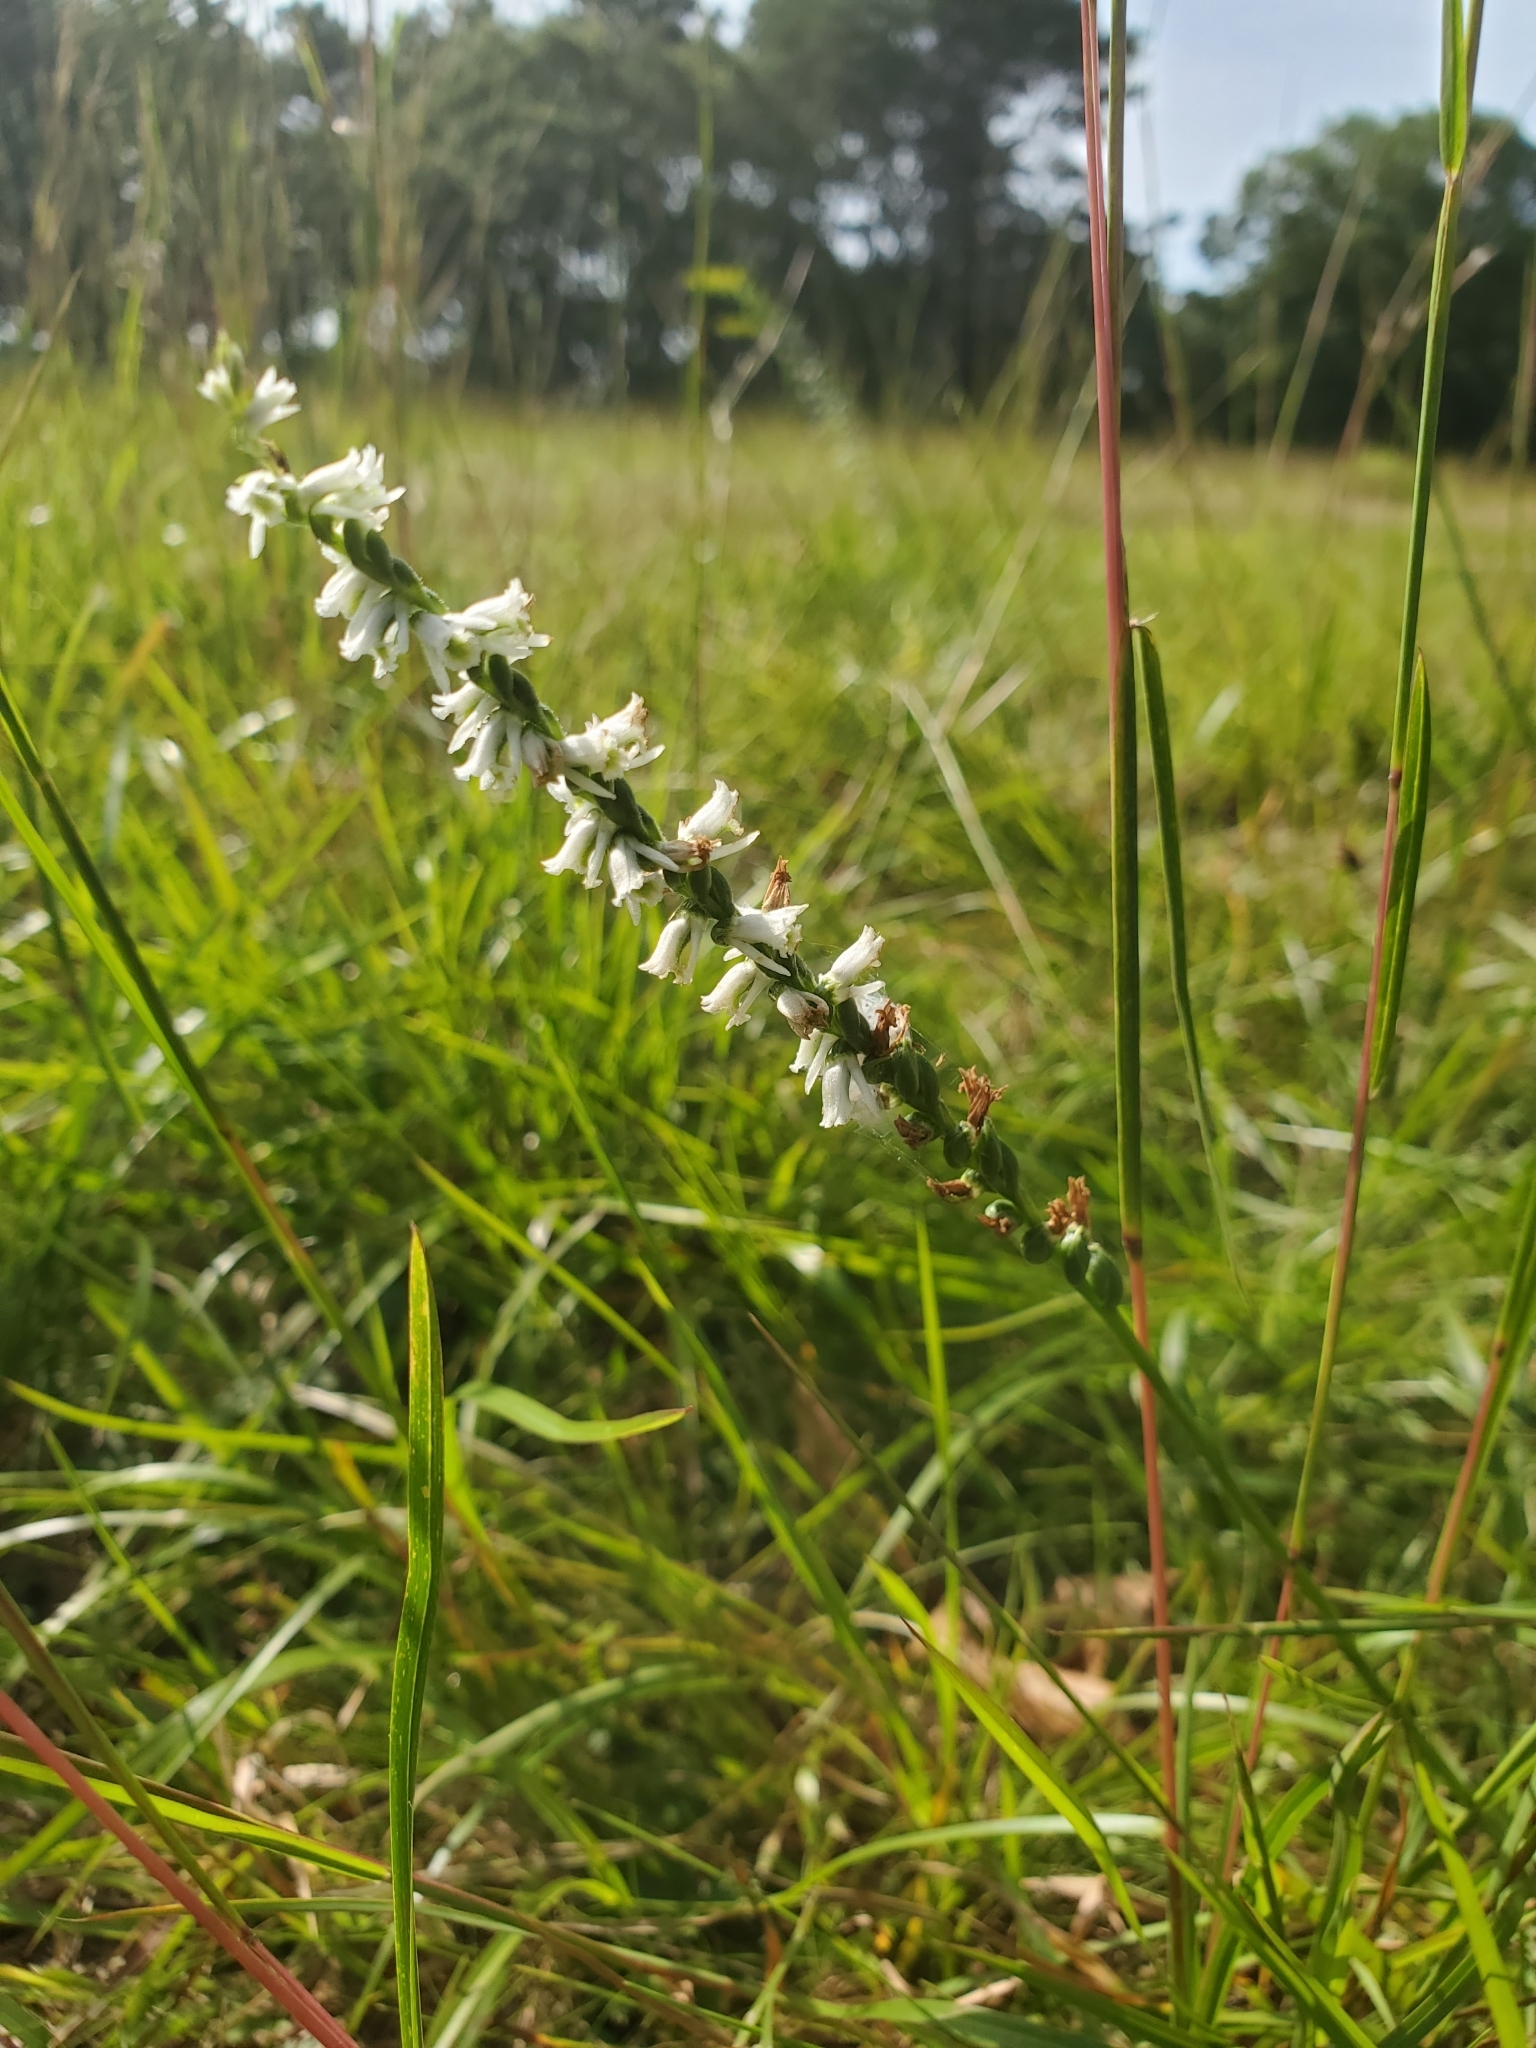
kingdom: Plantae
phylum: Tracheophyta
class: Liliopsida
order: Asparagales
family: Orchidaceae
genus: Spiranthes
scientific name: Spiranthes lacera
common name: Northern slender ladies'-tresses
